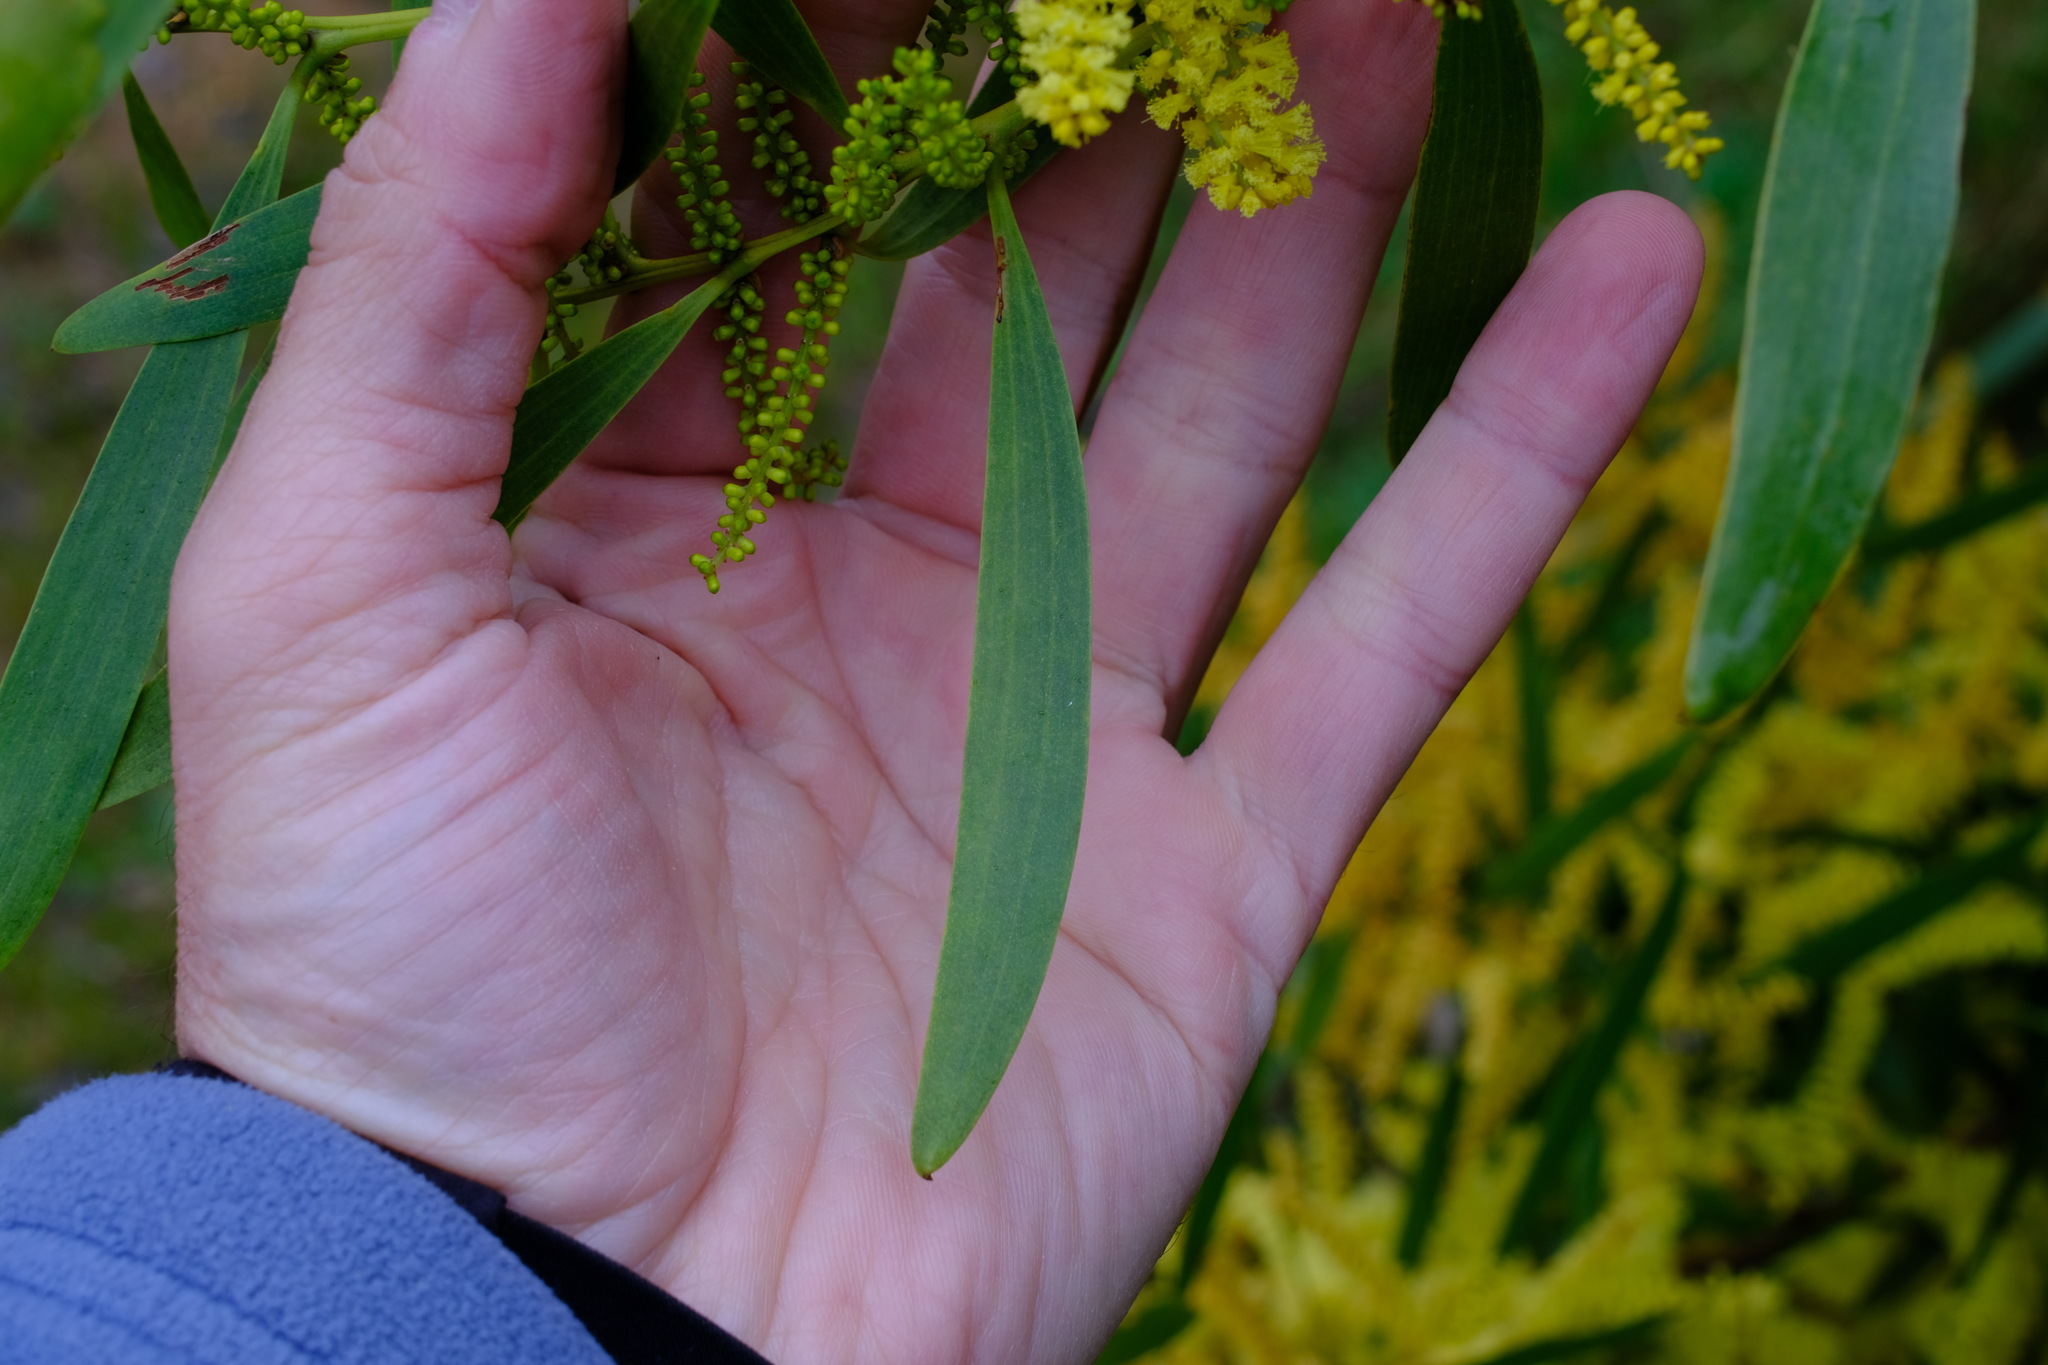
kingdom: Plantae
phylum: Tracheophyta
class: Magnoliopsida
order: Fabales
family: Fabaceae
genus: Acacia
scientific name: Acacia longifolia
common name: Sydney golden wattle
